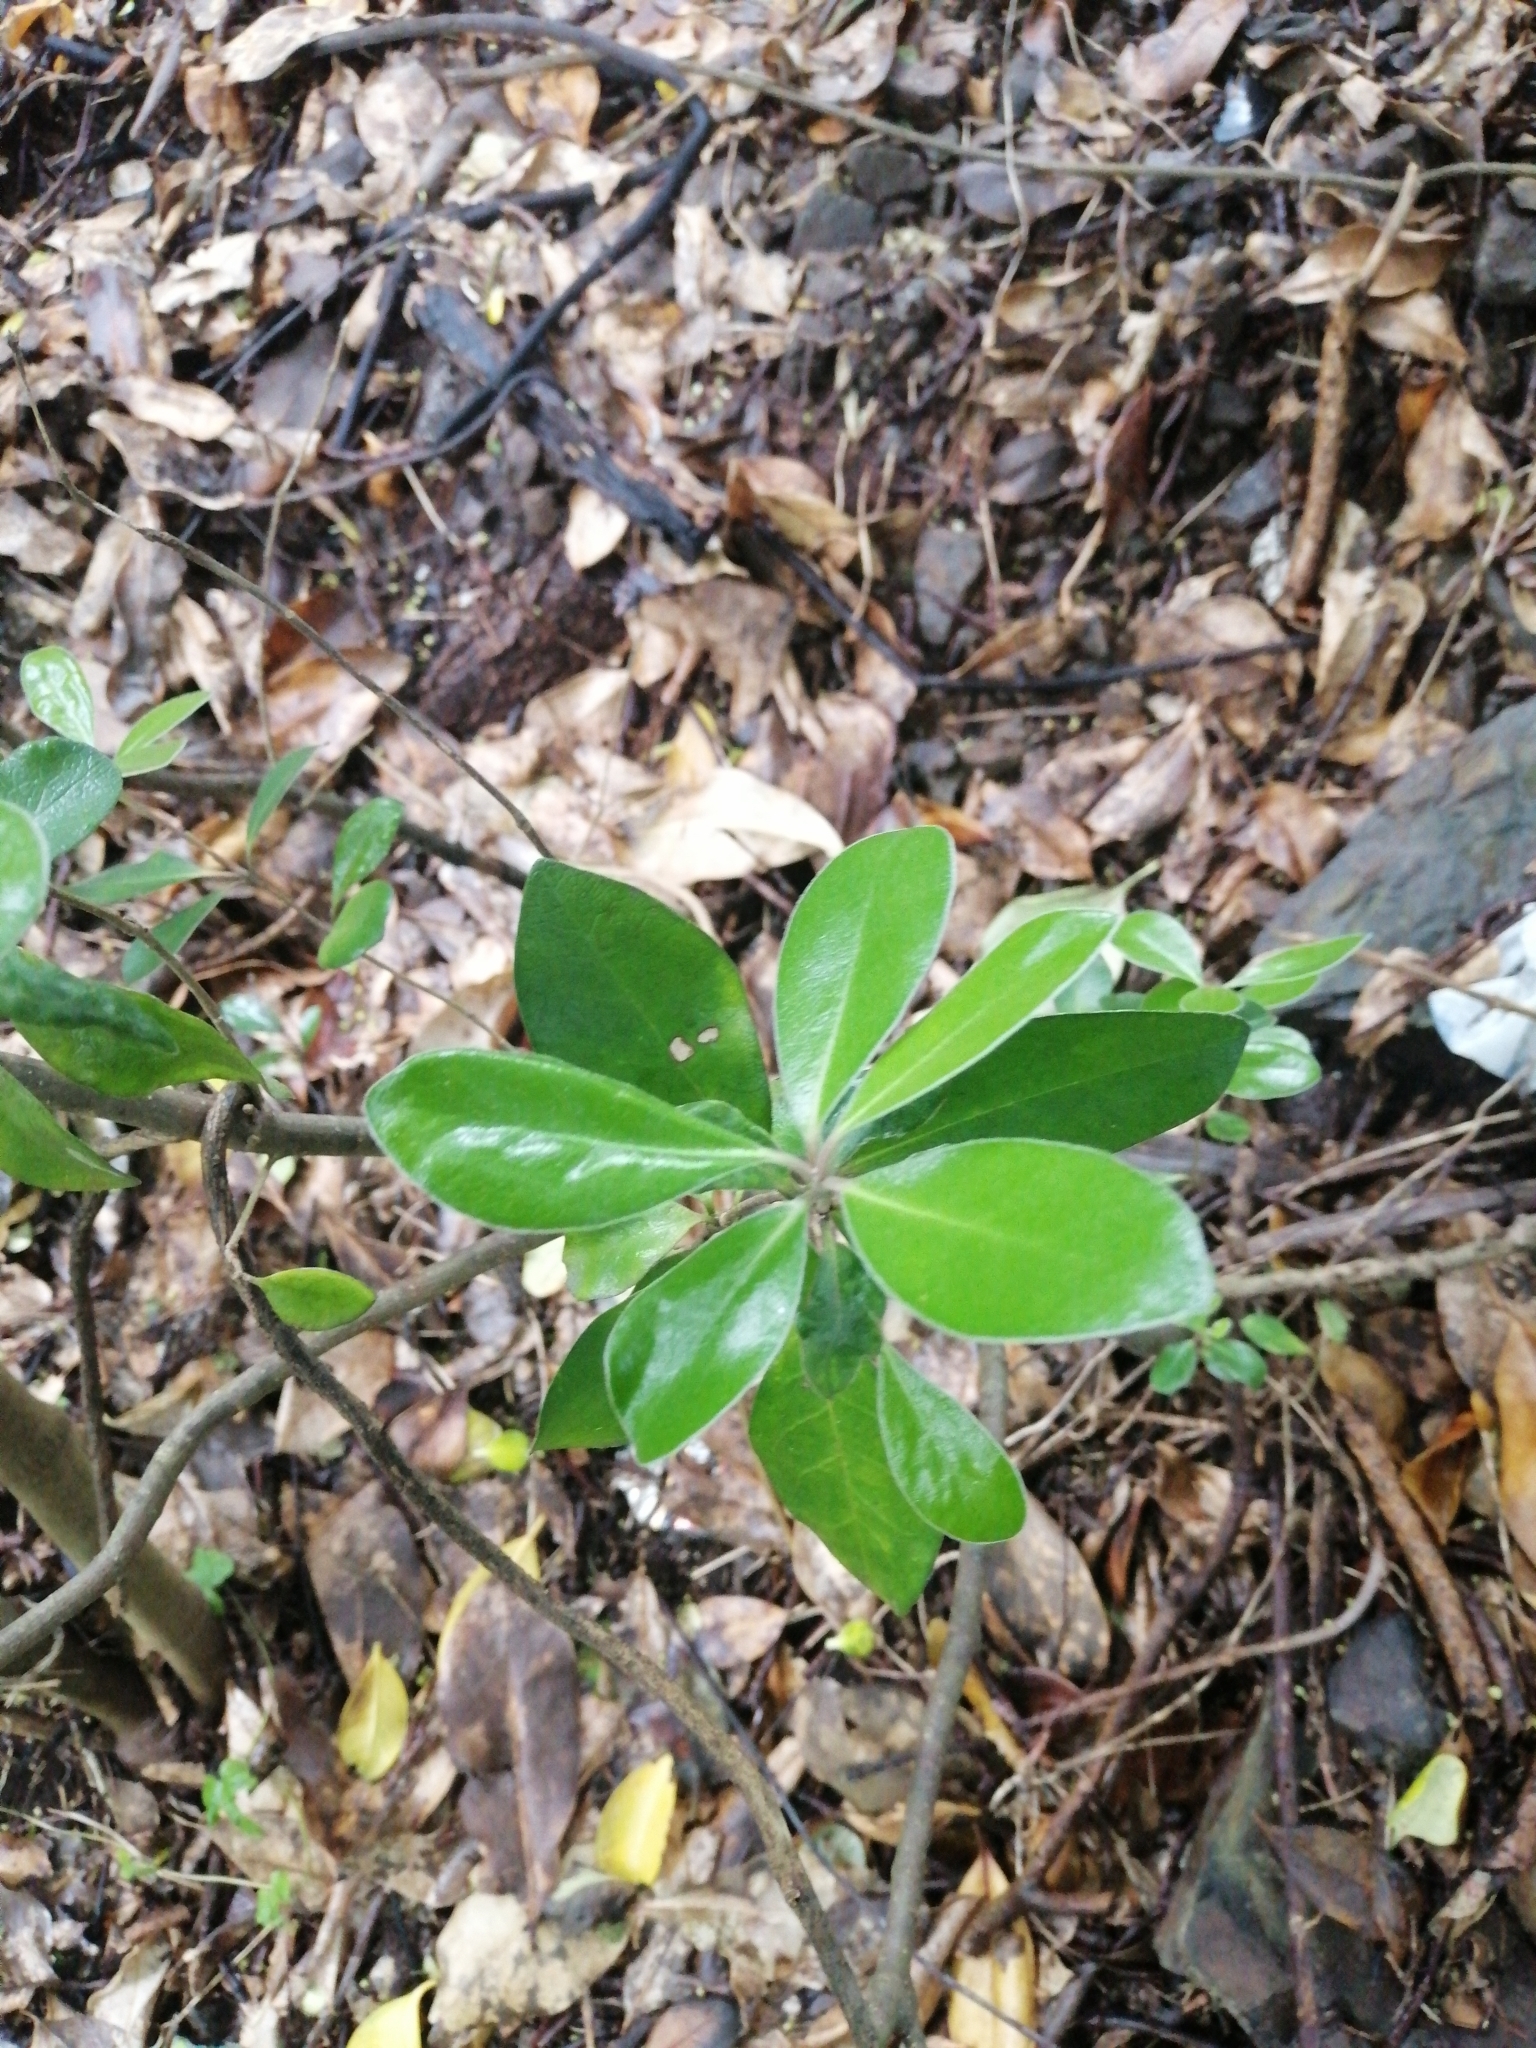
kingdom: Plantae
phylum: Tracheophyta
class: Magnoliopsida
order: Apiales
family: Pittosporaceae
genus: Pittosporum
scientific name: Pittosporum crassifolium
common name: Karo
